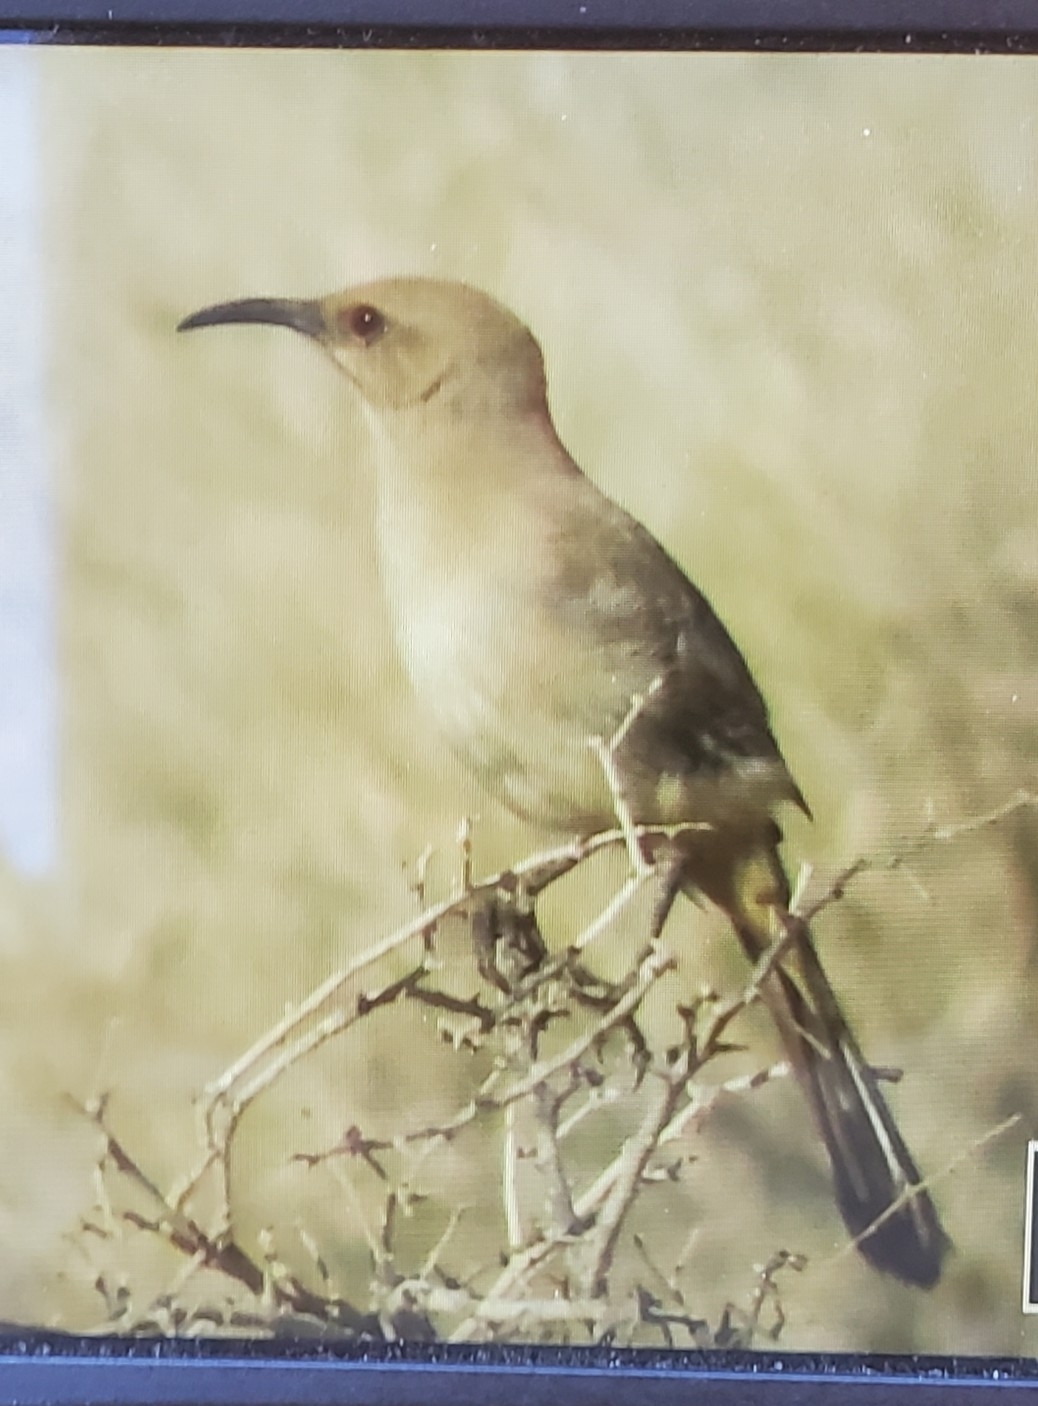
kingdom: Animalia
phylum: Chordata
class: Aves
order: Passeriformes
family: Mimidae
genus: Toxostoma
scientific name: Toxostoma lecontei
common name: Le conte's thrasher
